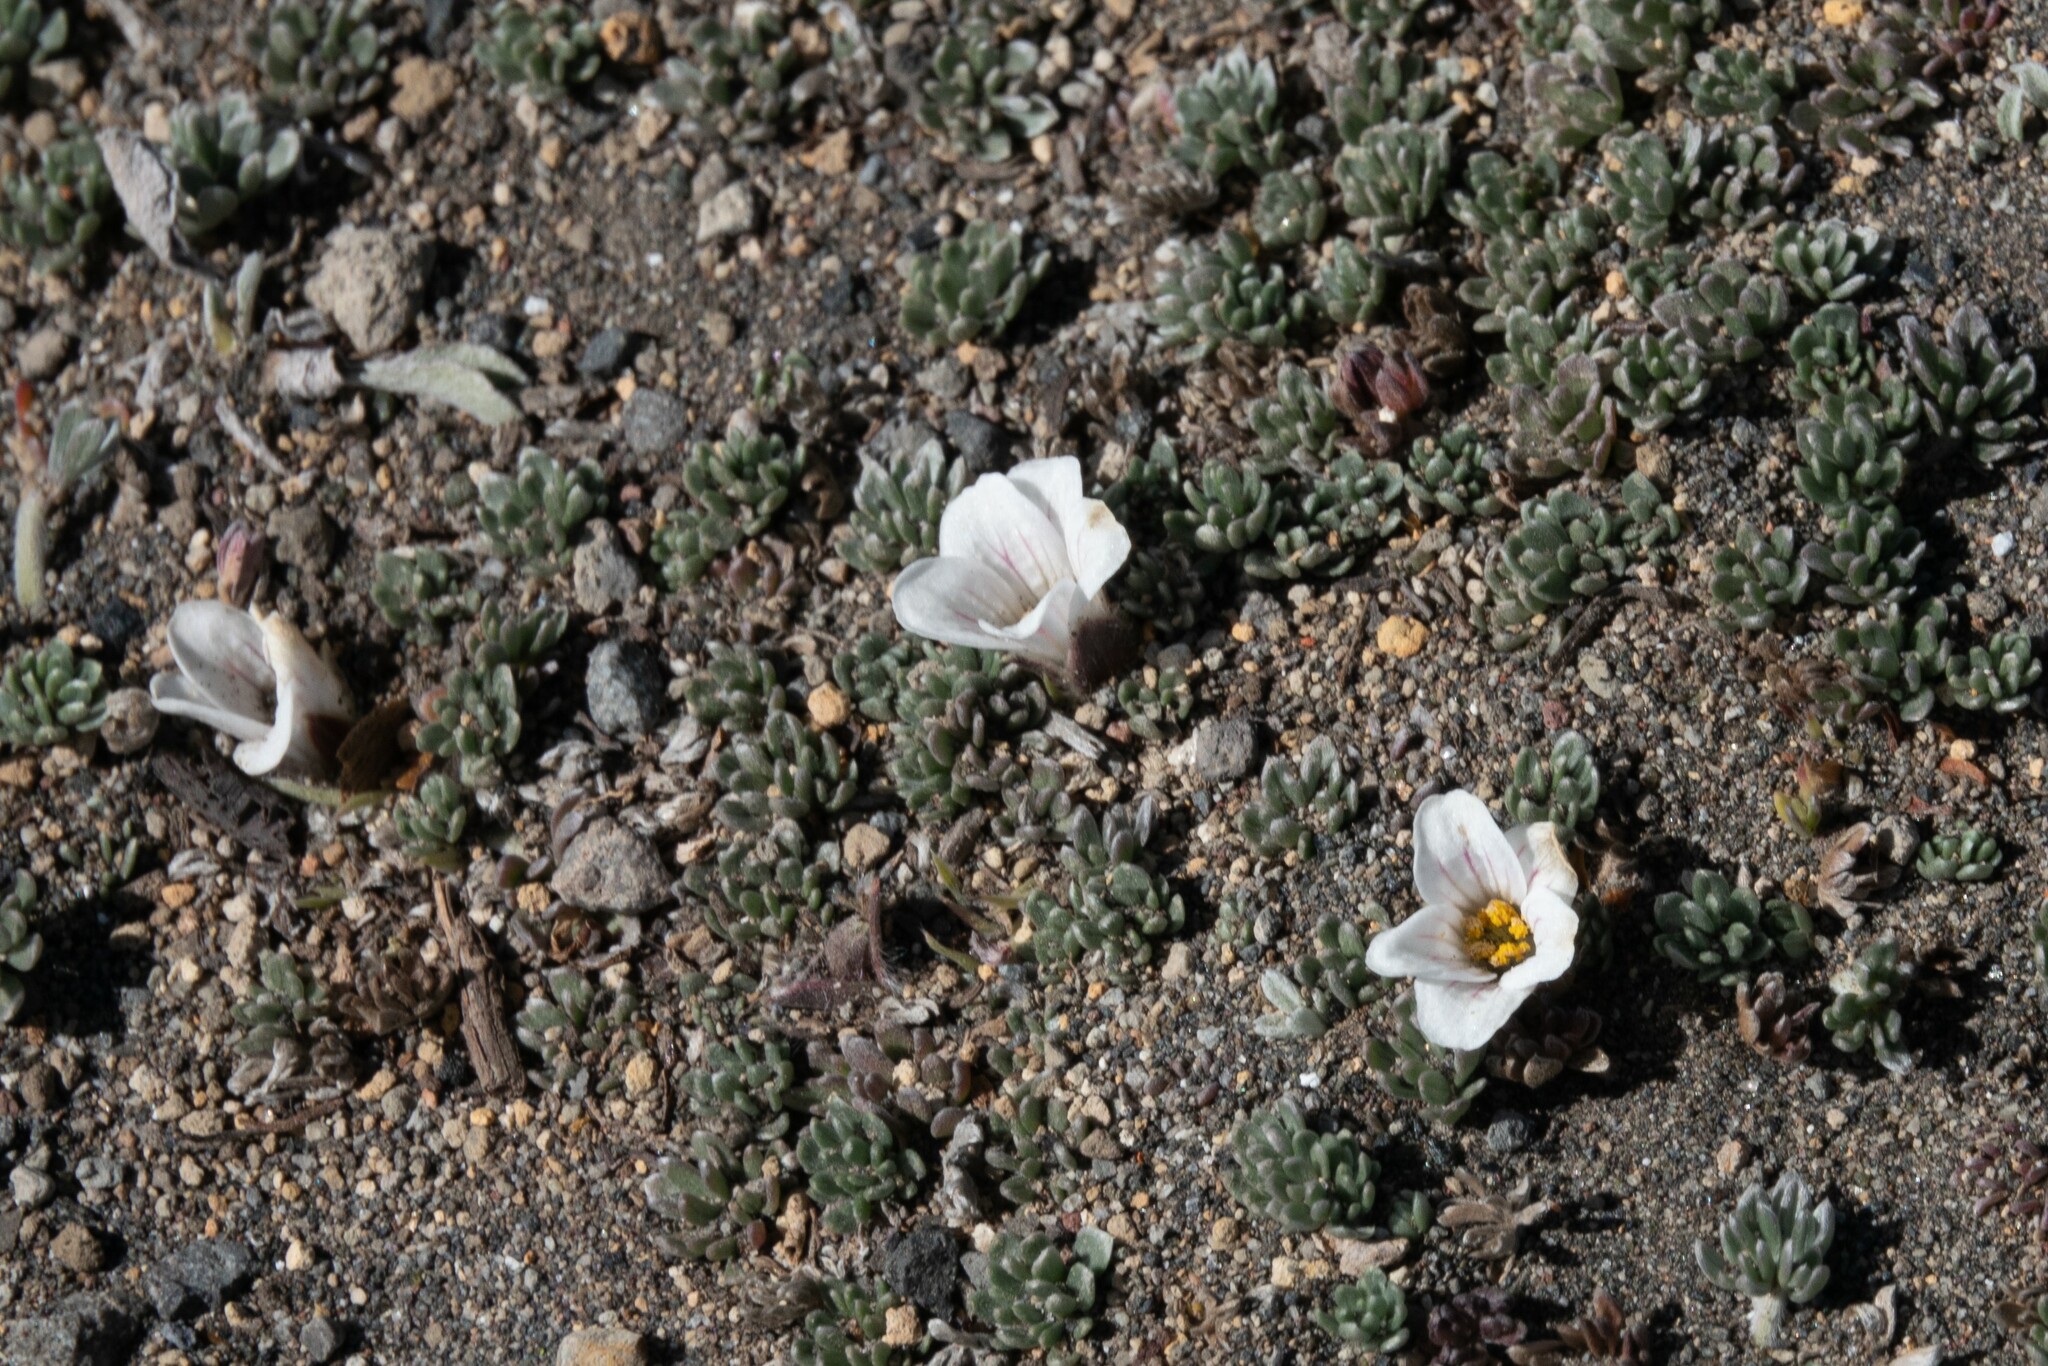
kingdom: Plantae
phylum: Tracheophyta
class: Magnoliopsida
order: Geraniales
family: Geraniaceae
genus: Geranium
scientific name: Geranium ecuadoriense
